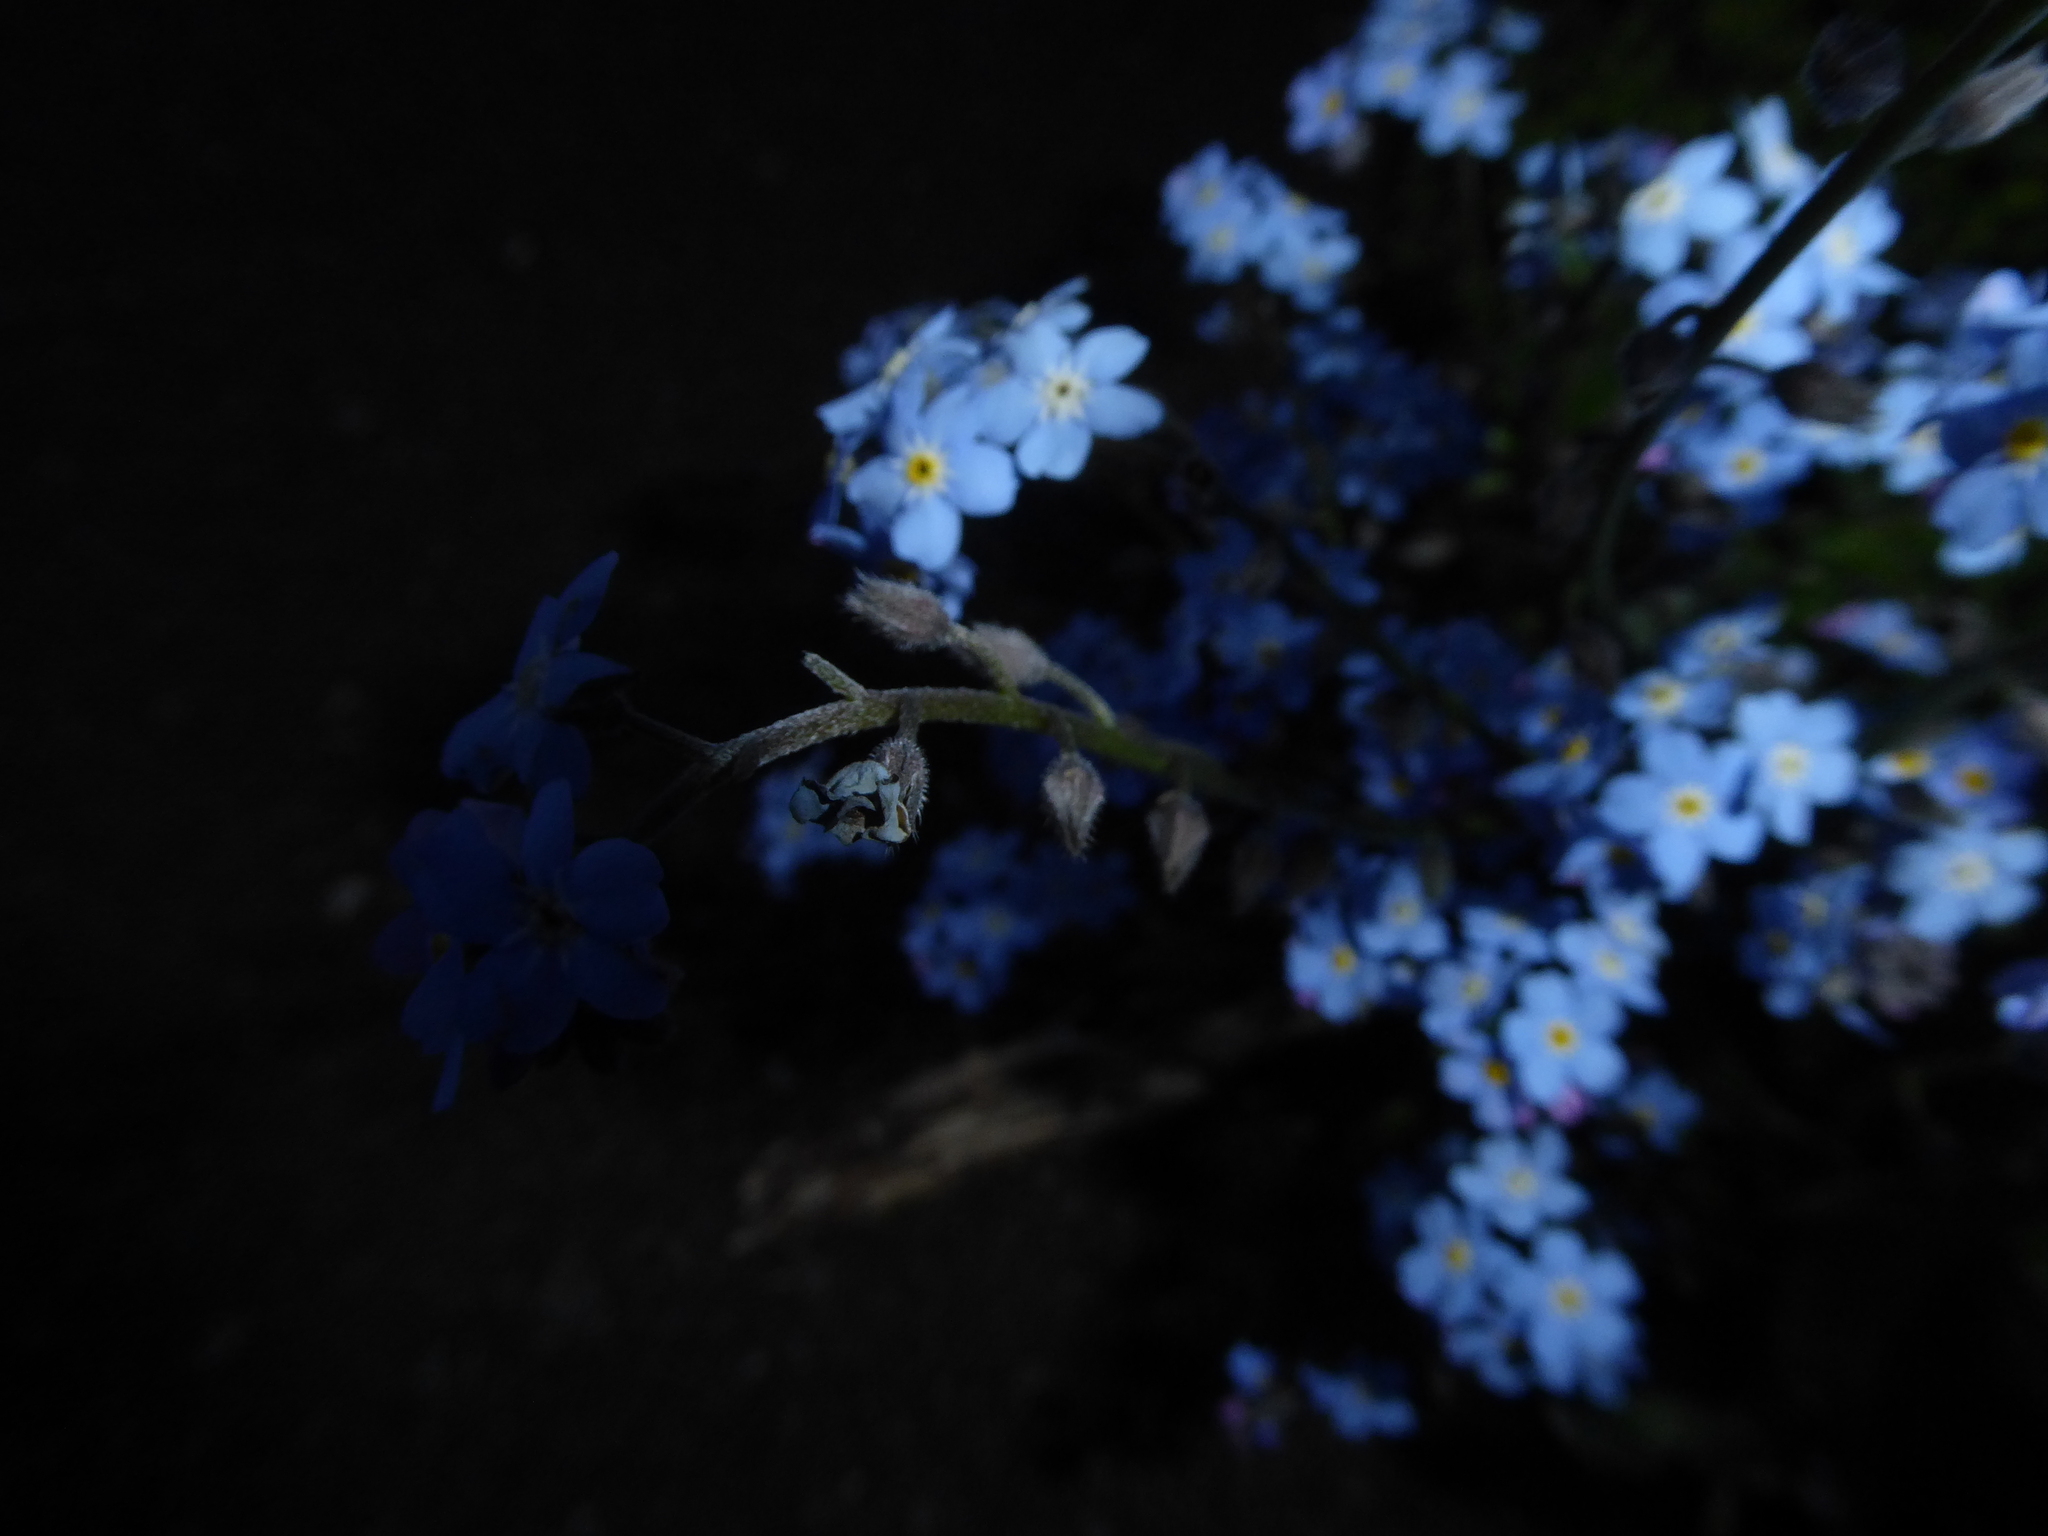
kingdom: Plantae
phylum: Tracheophyta
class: Magnoliopsida
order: Boraginales
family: Boraginaceae
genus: Myosotis
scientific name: Myosotis sylvatica
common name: Wood forget-me-not
